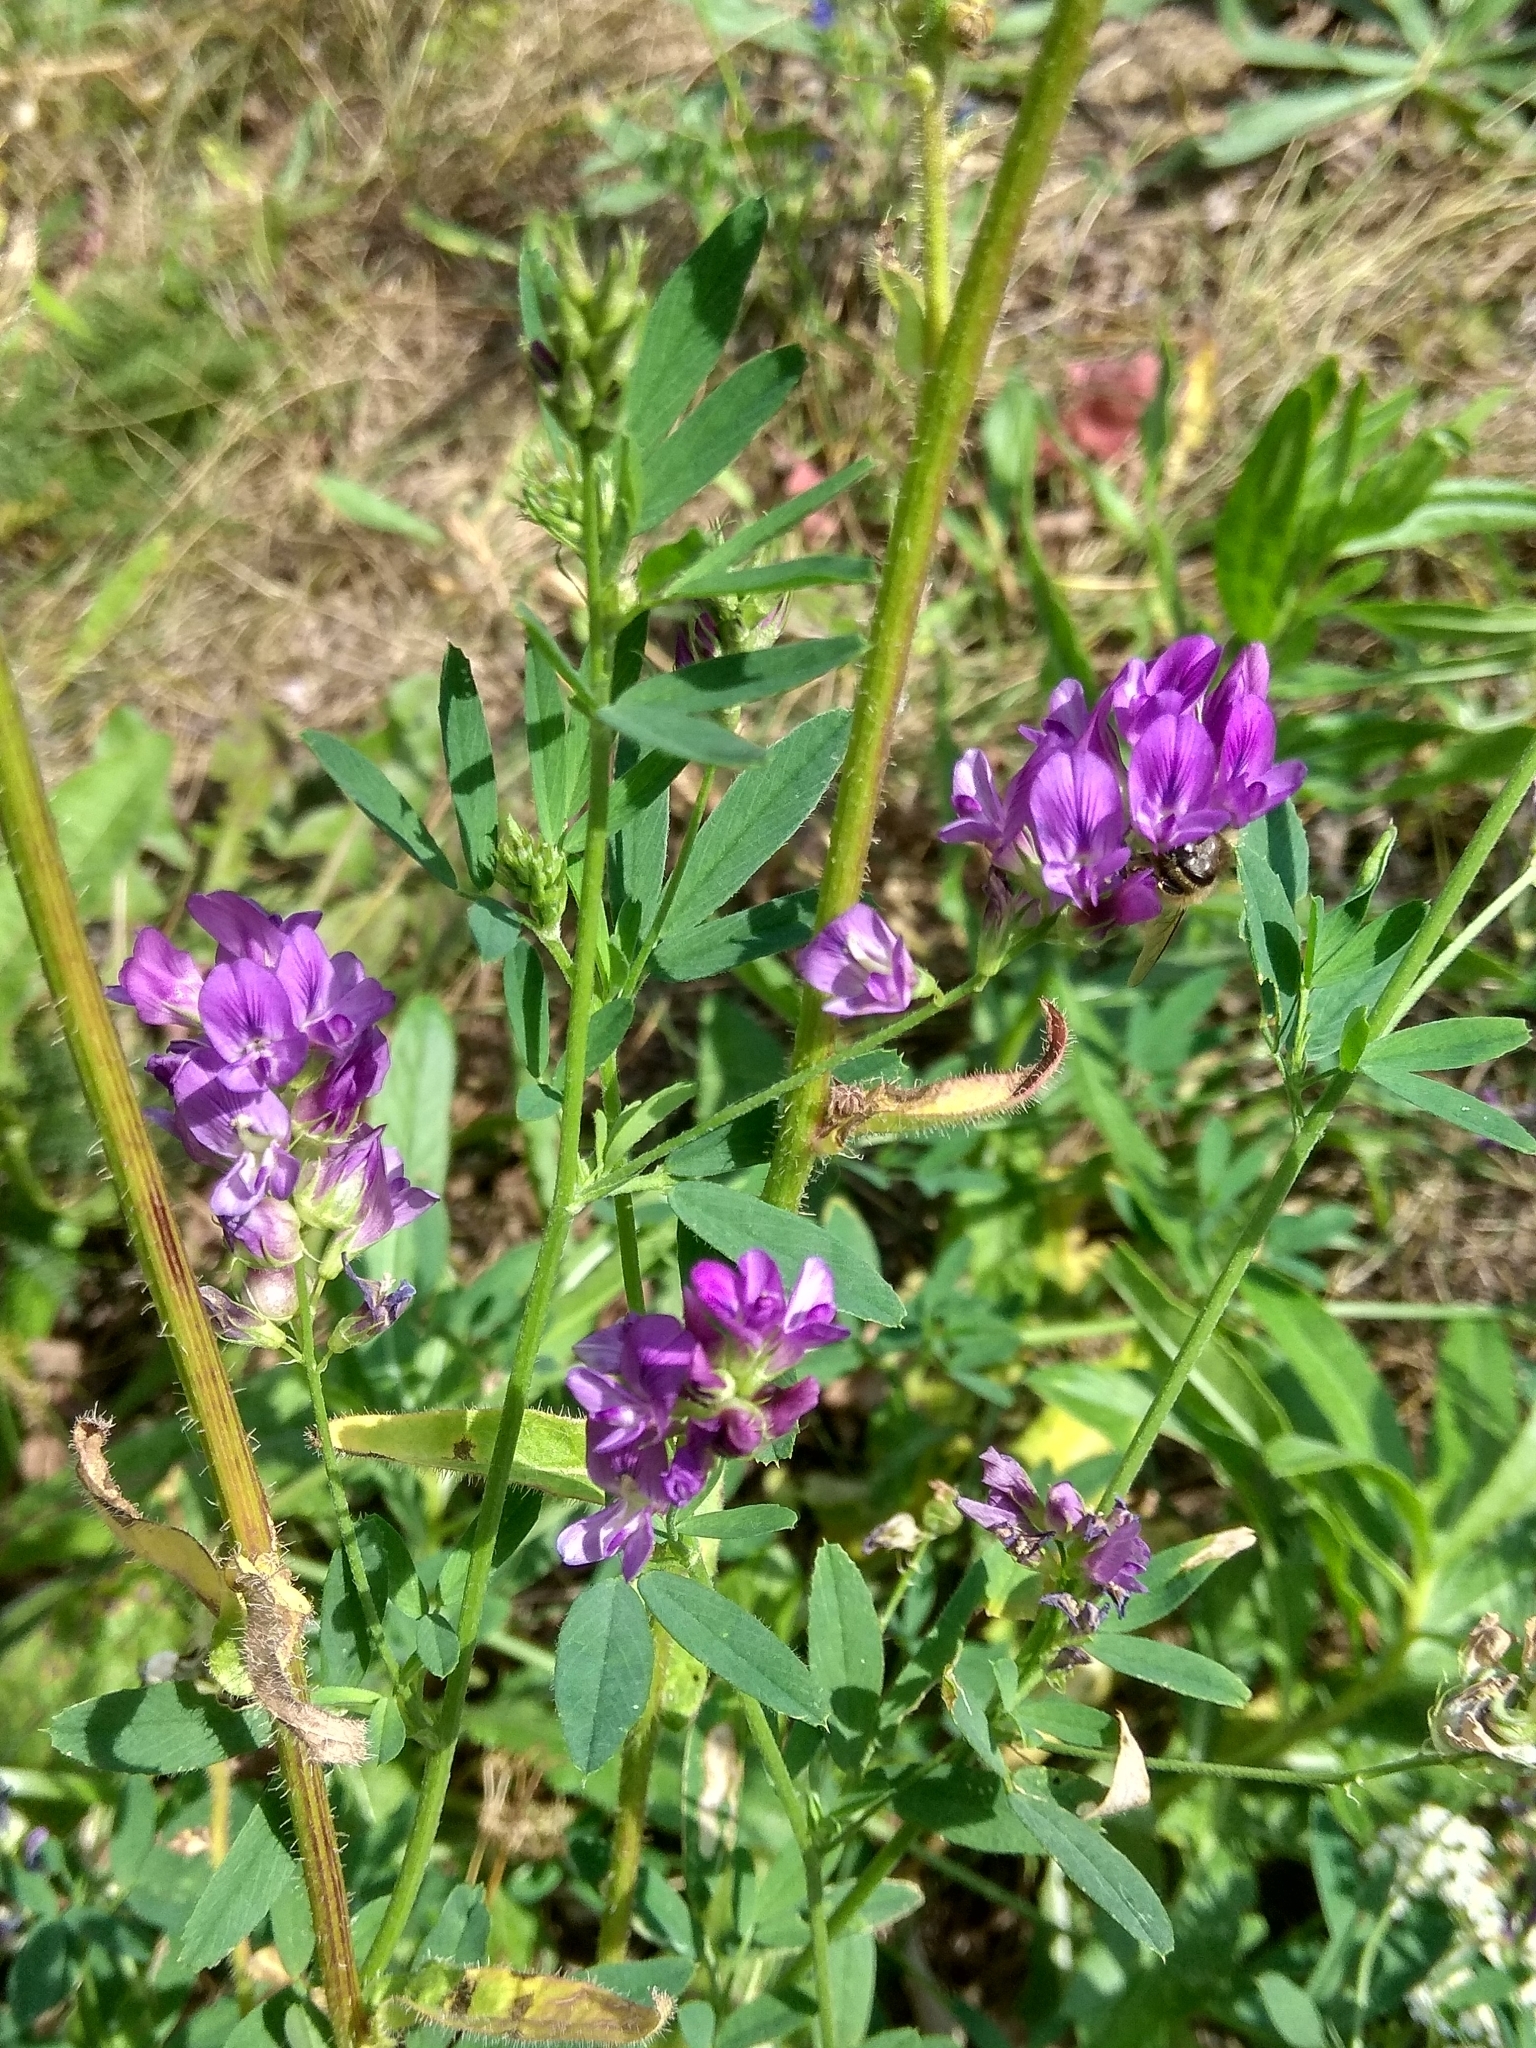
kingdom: Plantae
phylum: Tracheophyta
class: Magnoliopsida
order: Fabales
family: Fabaceae
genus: Medicago
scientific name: Medicago sativa
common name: Alfalfa
